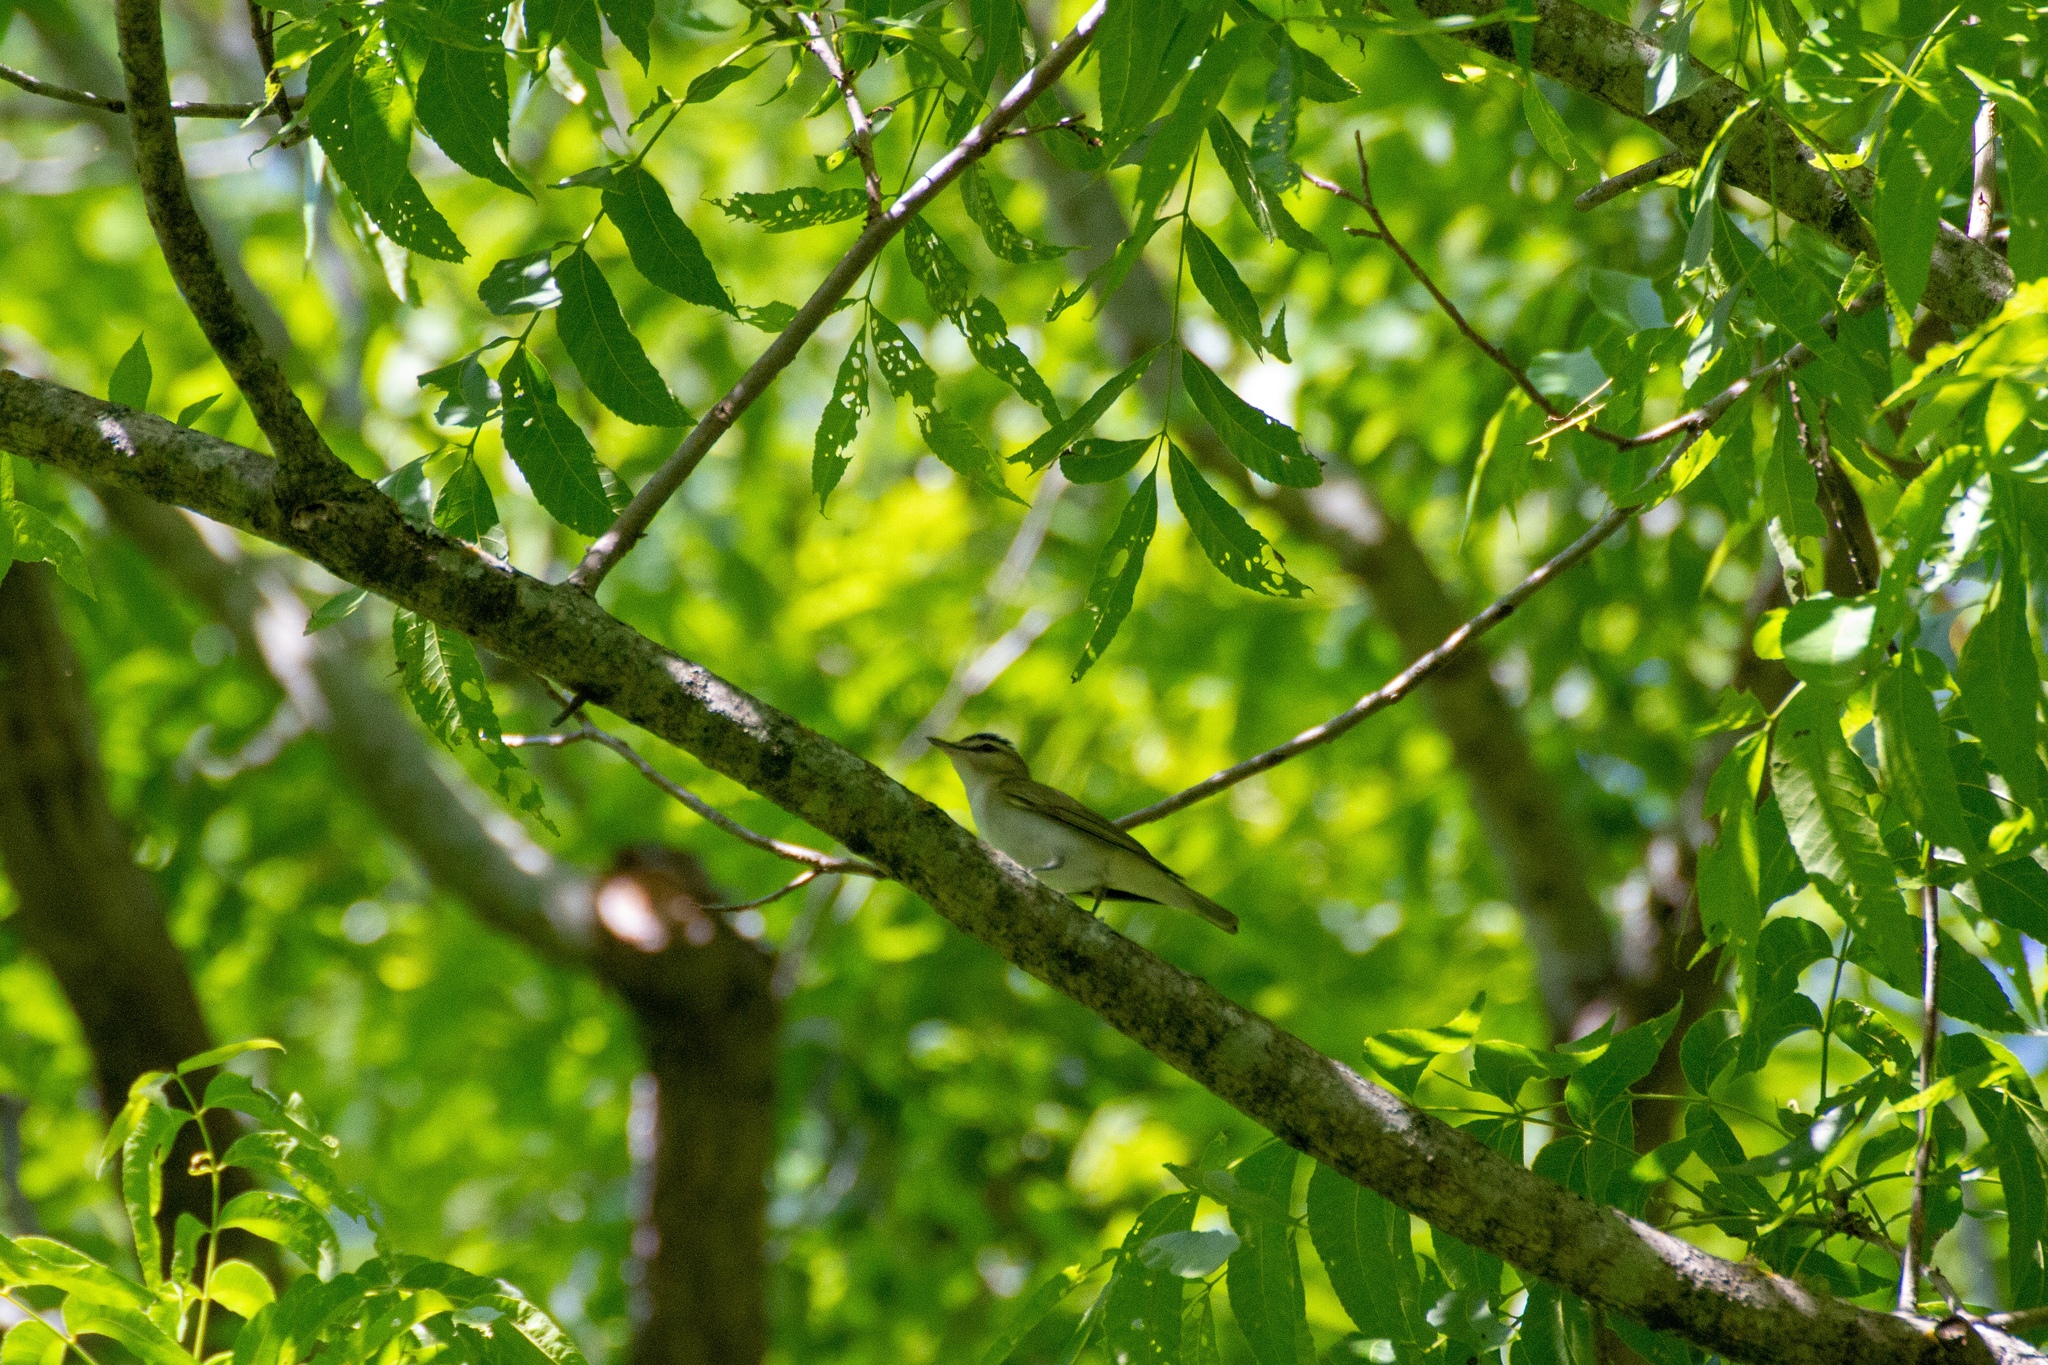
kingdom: Animalia
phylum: Chordata
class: Aves
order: Passeriformes
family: Vireonidae
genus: Vireo
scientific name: Vireo olivaceus
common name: Red-eyed vireo
